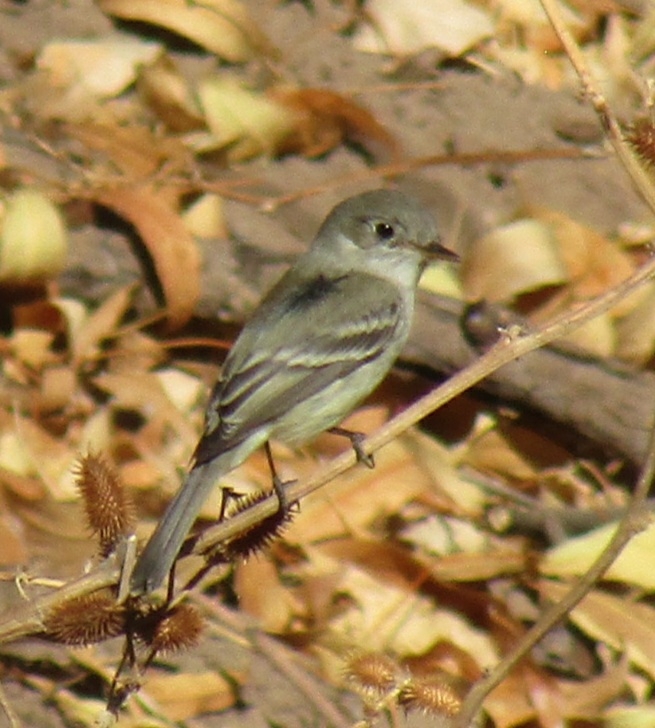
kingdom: Animalia
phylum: Chordata
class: Aves
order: Passeriformes
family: Tyrannidae
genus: Empidonax
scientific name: Empidonax wrightii
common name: Gray flycatcher
